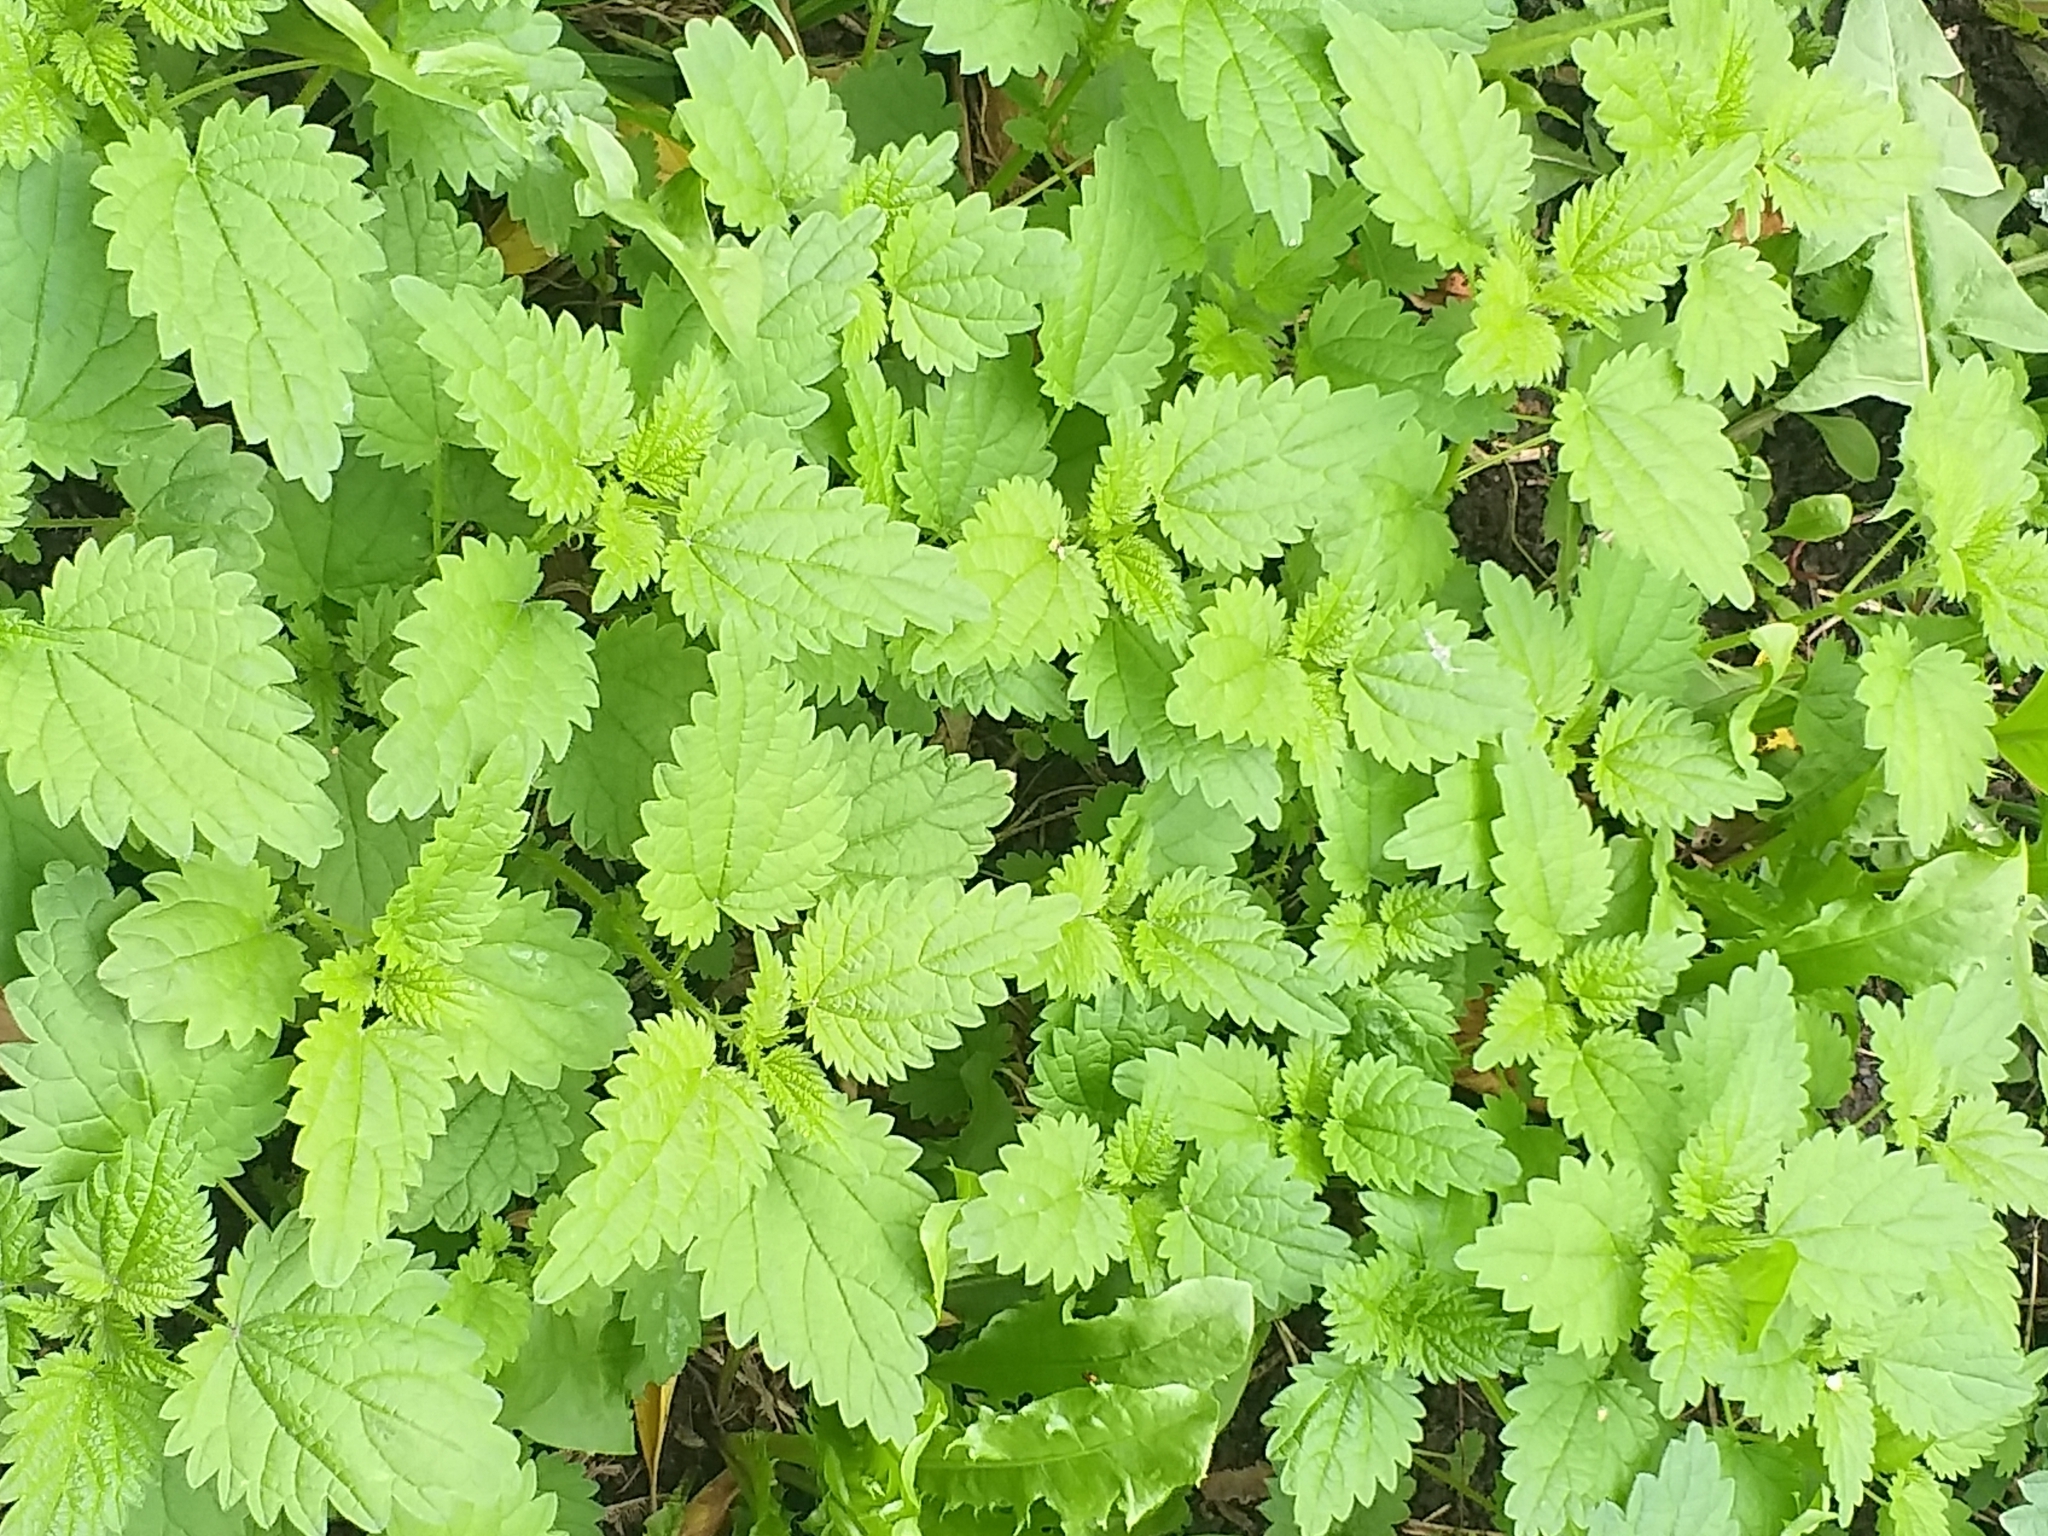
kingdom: Plantae
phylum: Tracheophyta
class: Magnoliopsida
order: Rosales
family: Urticaceae
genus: Urtica
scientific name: Urtica dioica
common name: Common nettle
